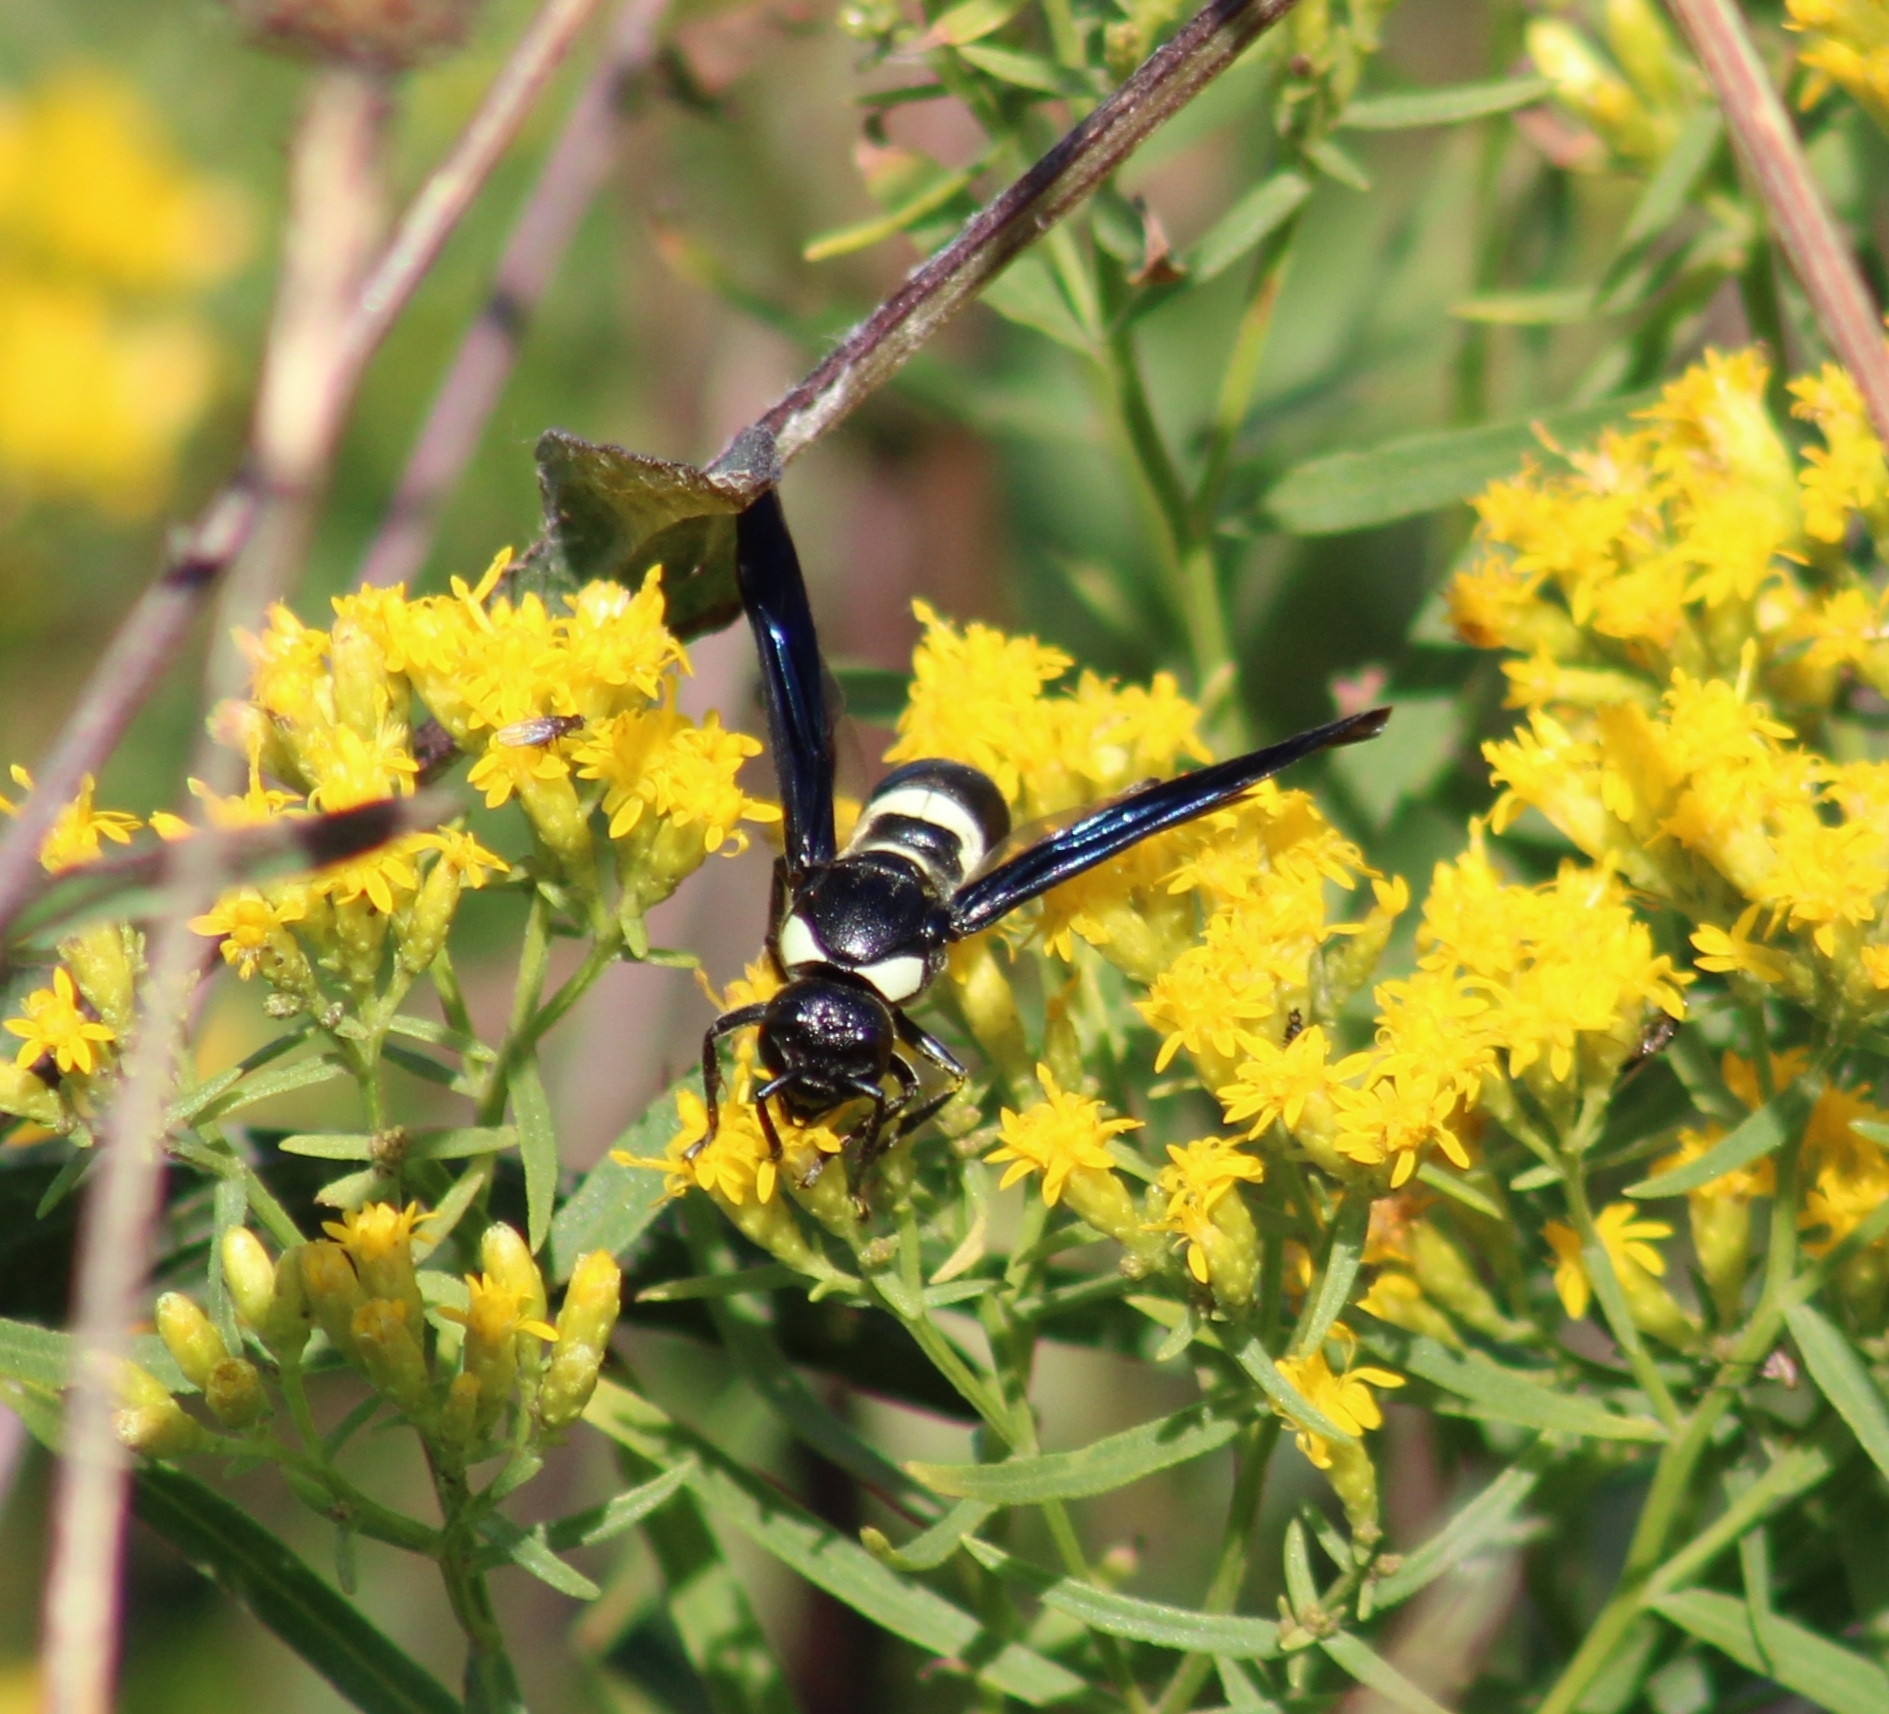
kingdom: Animalia
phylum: Arthropoda
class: Insecta
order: Hymenoptera
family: Eumenidae
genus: Monobia
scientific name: Monobia quadridens
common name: Four-toothed mason wasp
